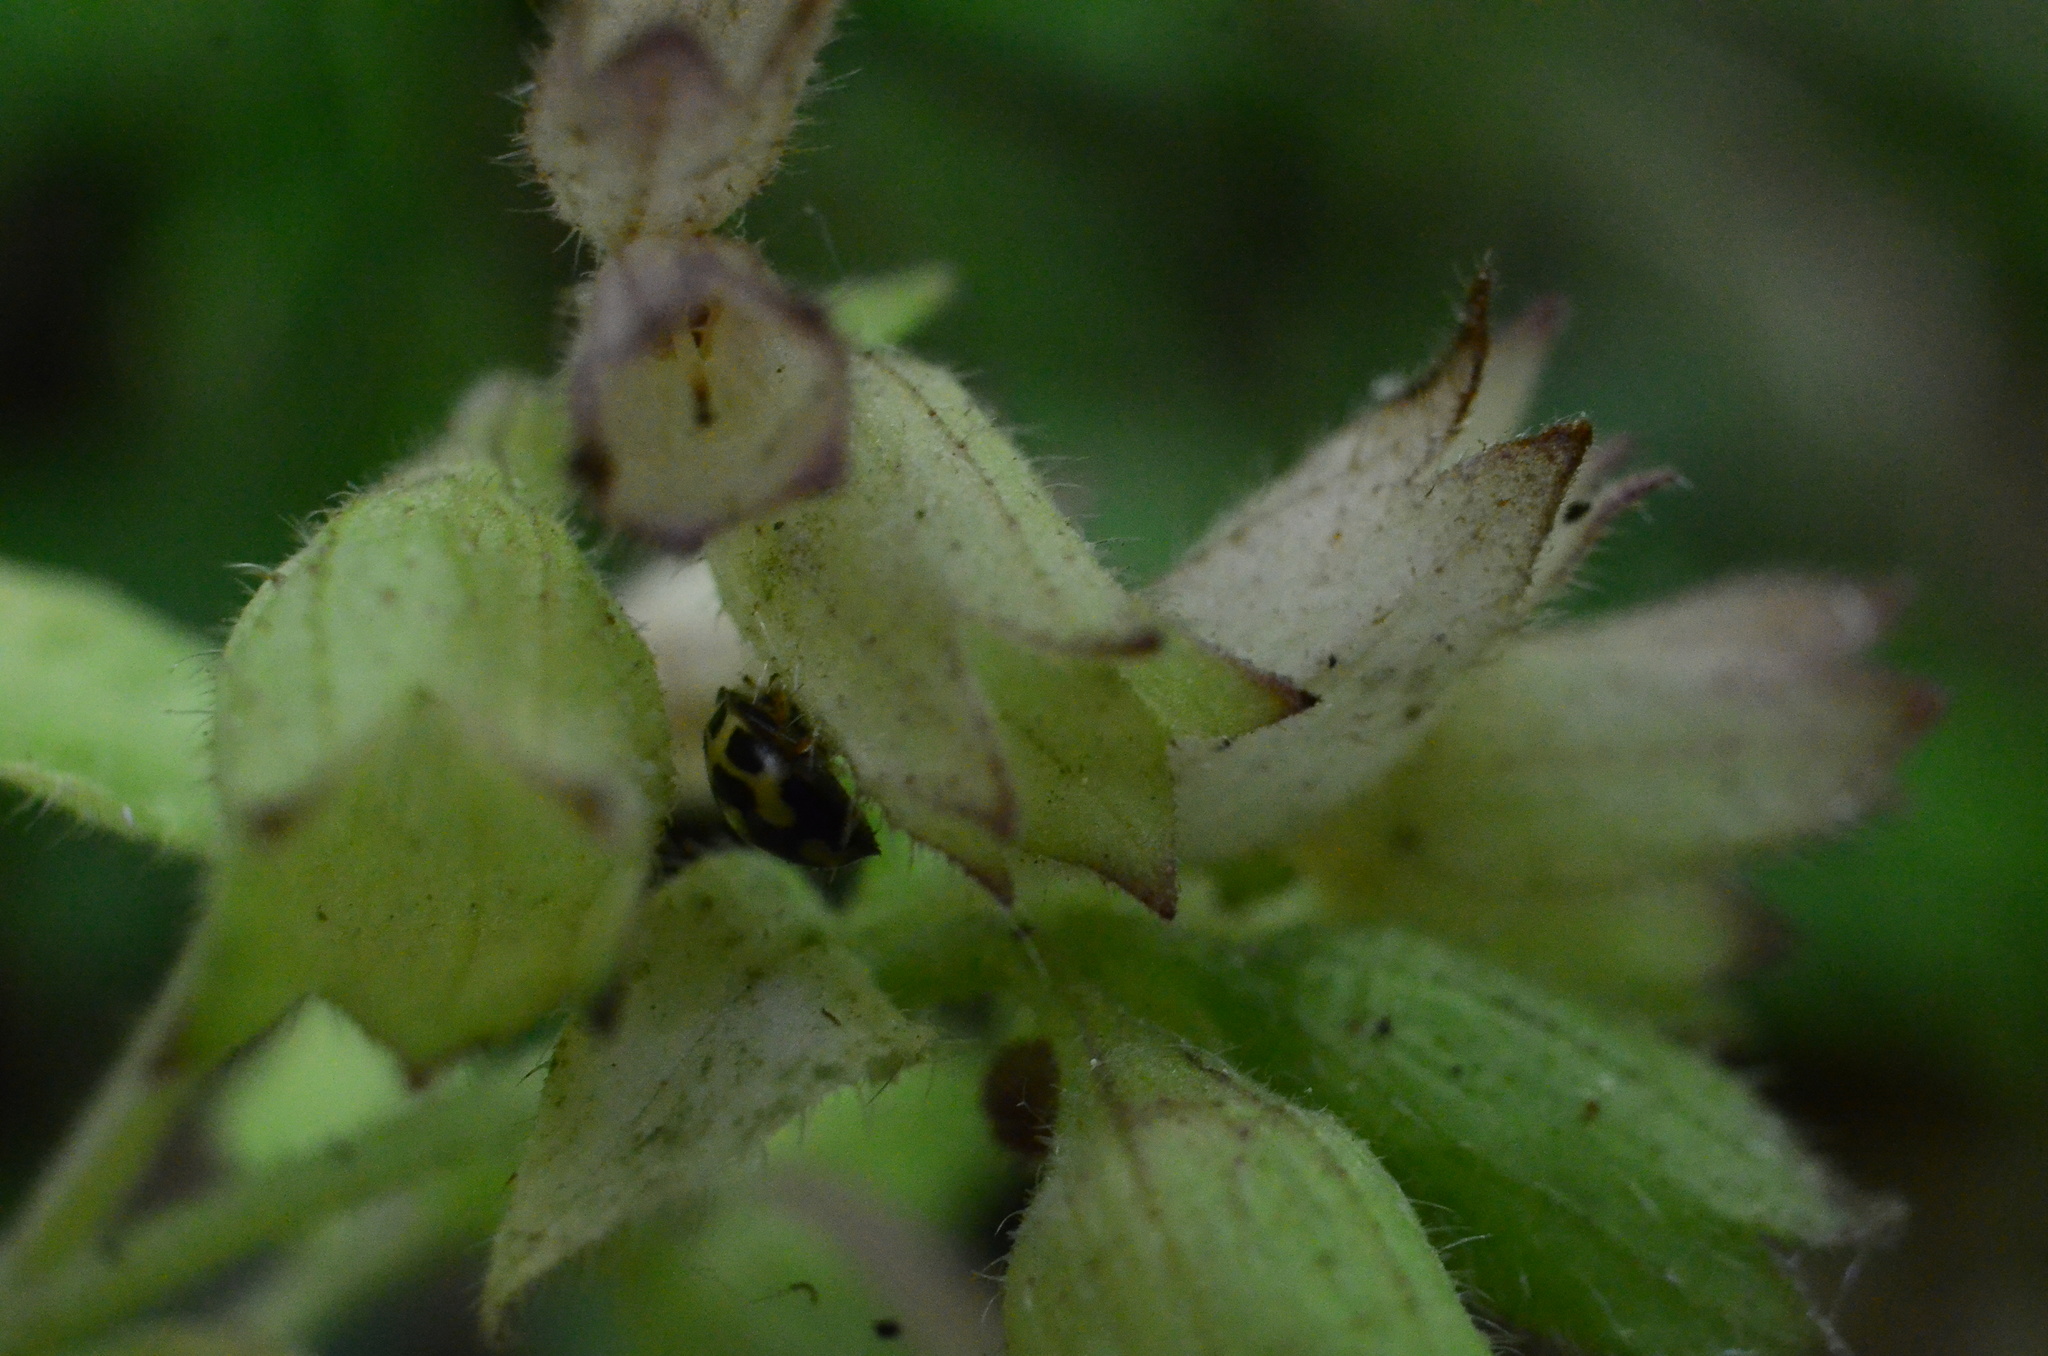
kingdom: Plantae
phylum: Tracheophyta
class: Magnoliopsida
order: Boraginales
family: Boraginaceae
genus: Pulmonaria
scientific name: Pulmonaria obscura
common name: Suffolk lungwort
